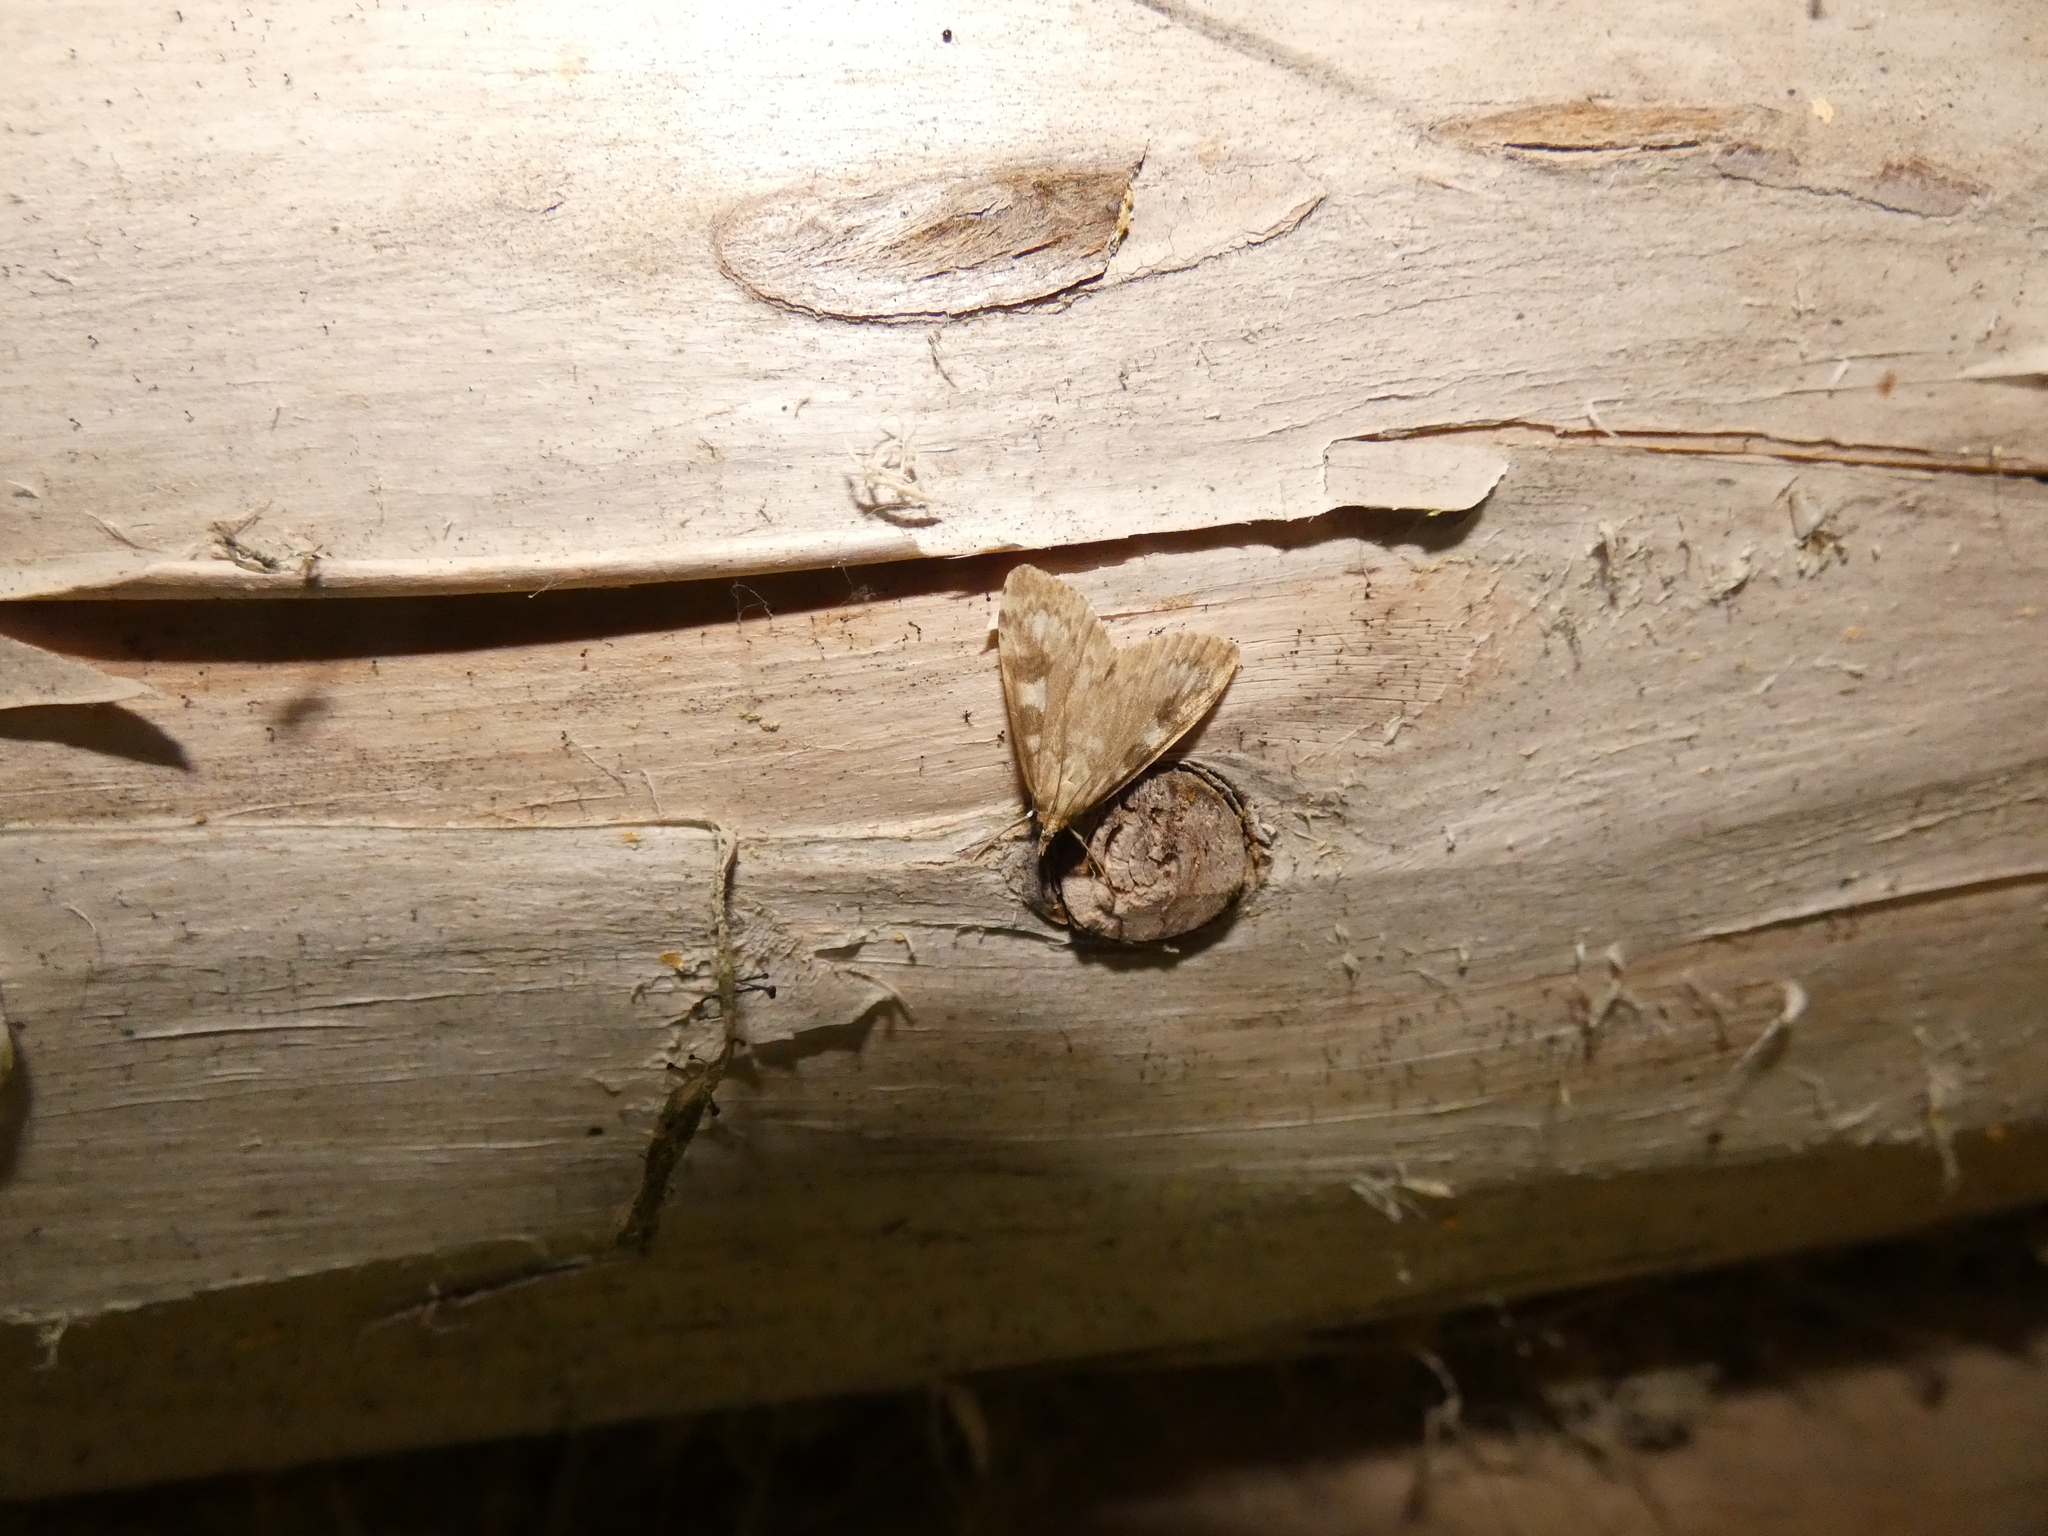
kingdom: Animalia
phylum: Arthropoda
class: Insecta
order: Lepidoptera
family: Crambidae
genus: Udea
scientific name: Udea olivalis
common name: Olive pearl
